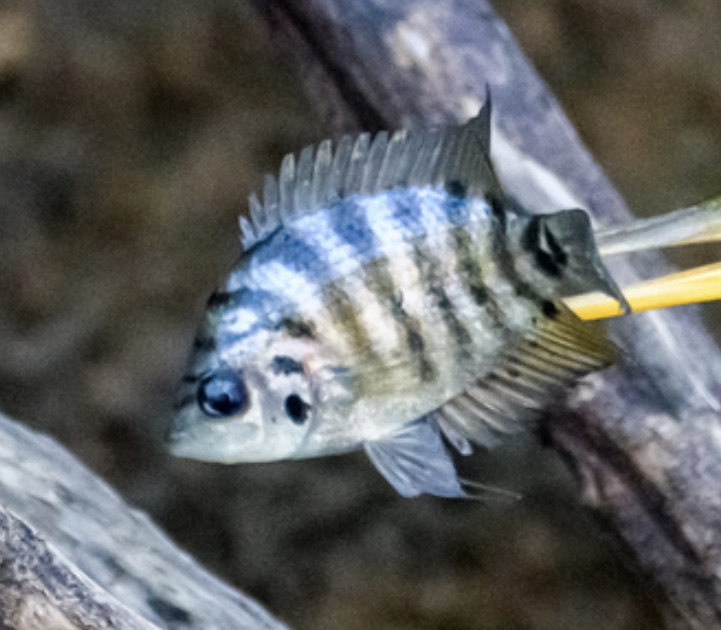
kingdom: Animalia
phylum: Chordata
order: Perciformes
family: Cichlidae
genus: Archocentrus
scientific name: Archocentrus centrarchus
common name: Flier cichlid
